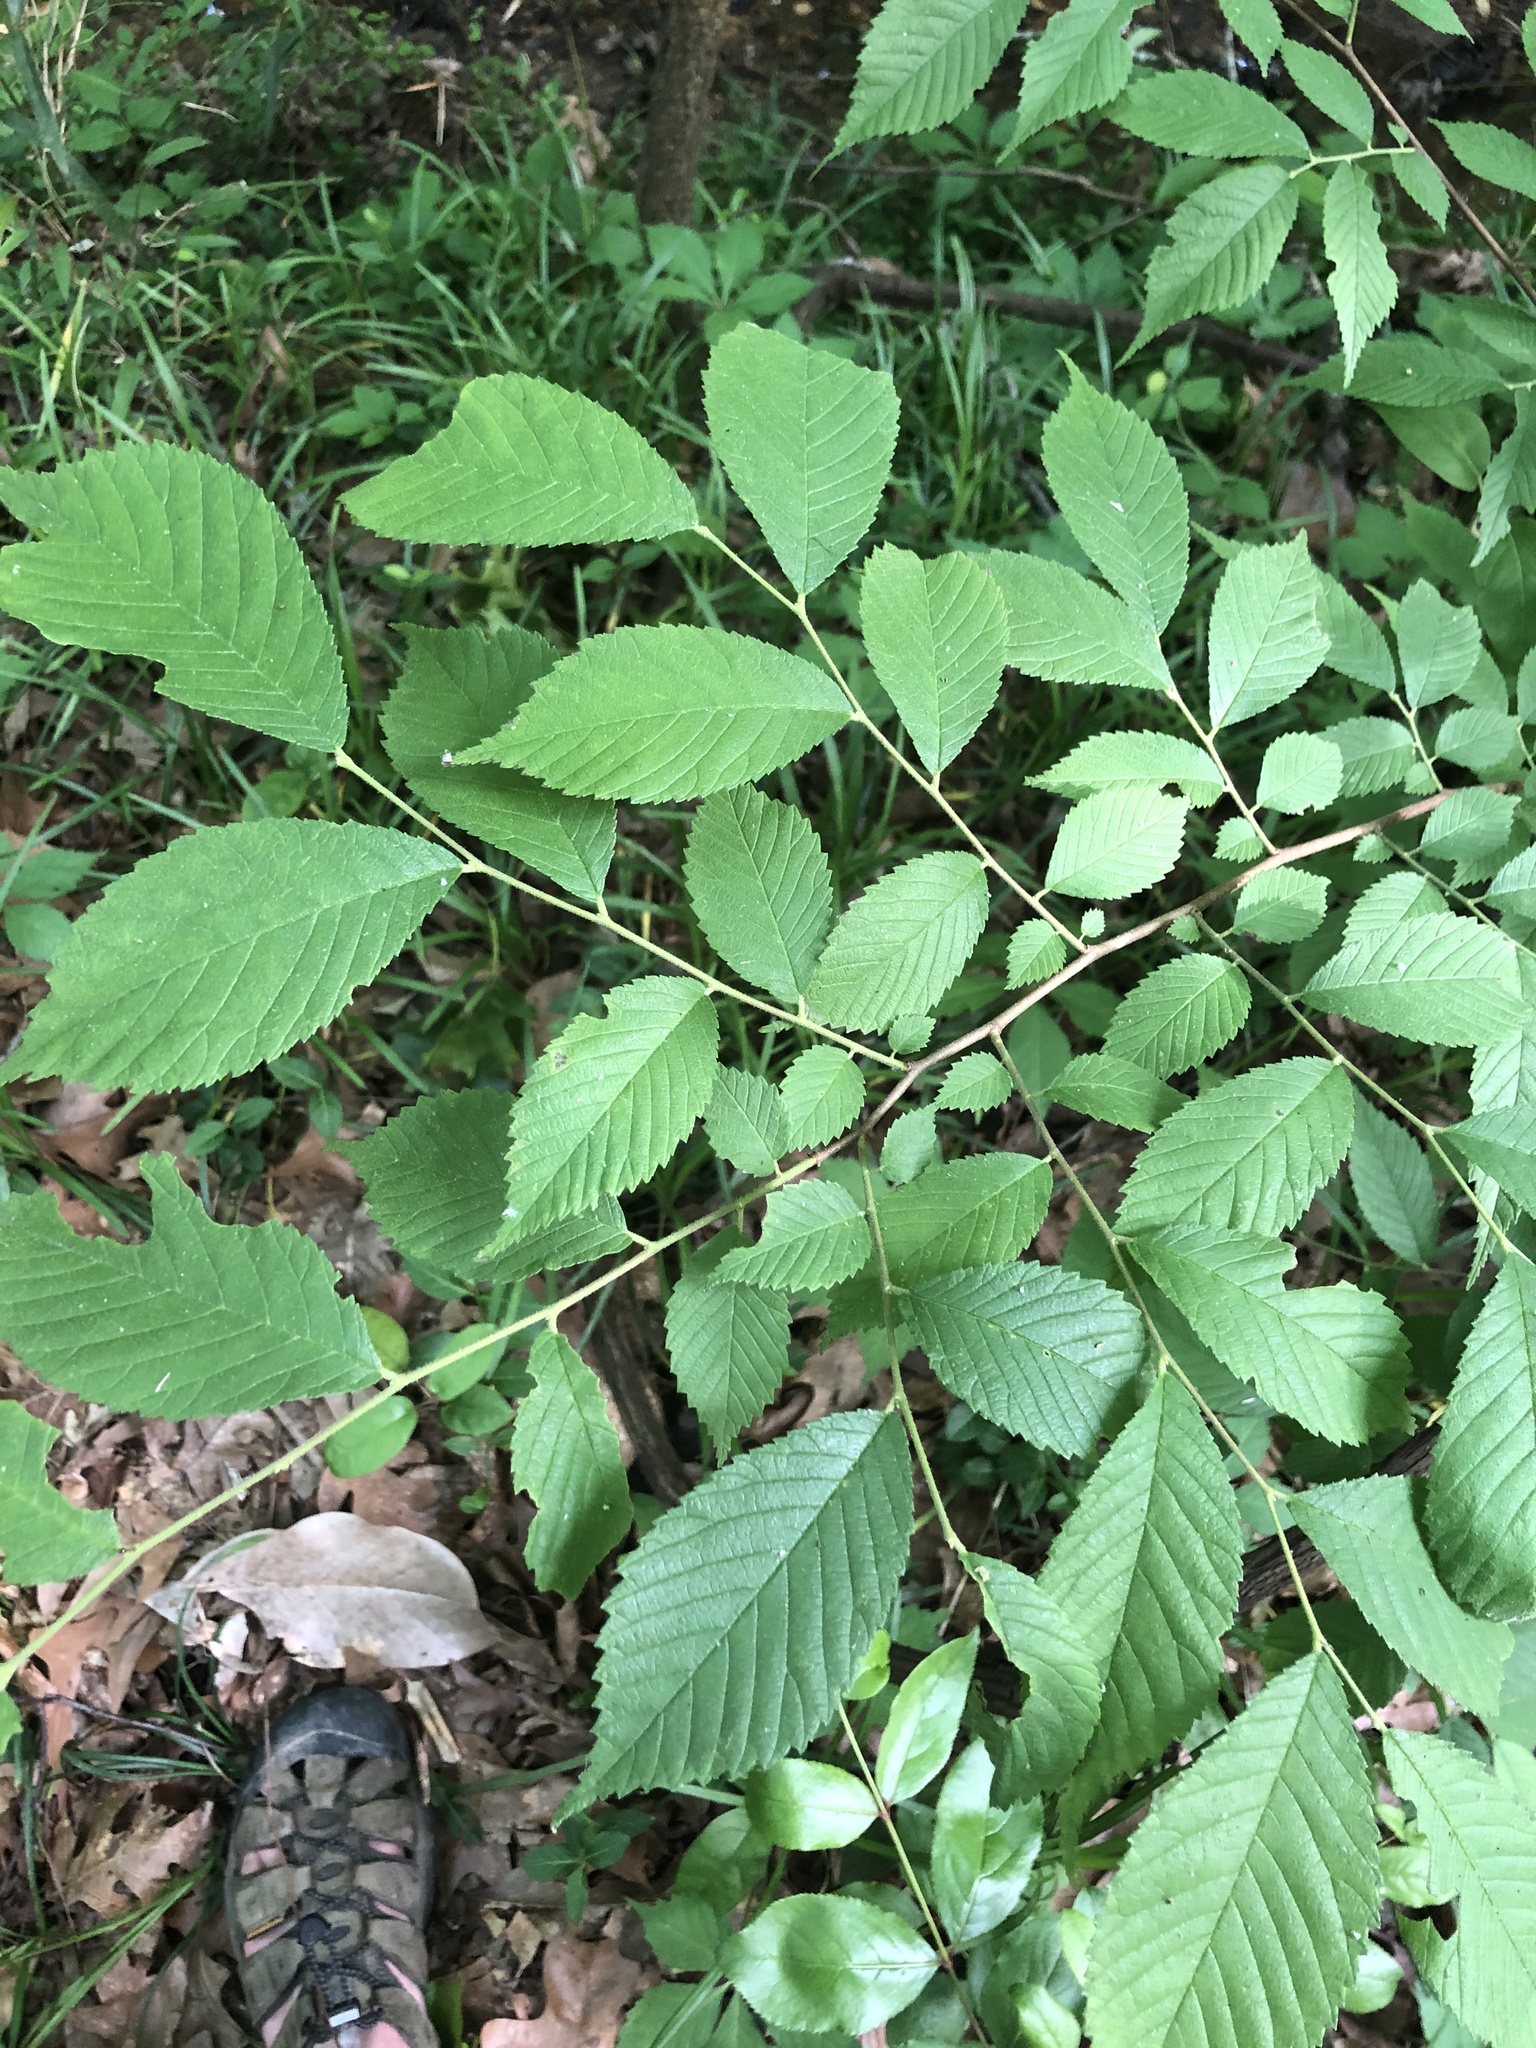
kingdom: Plantae
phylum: Tracheophyta
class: Magnoliopsida
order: Rosales
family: Ulmaceae
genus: Ulmus
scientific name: Ulmus rubra
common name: Slippery elm
